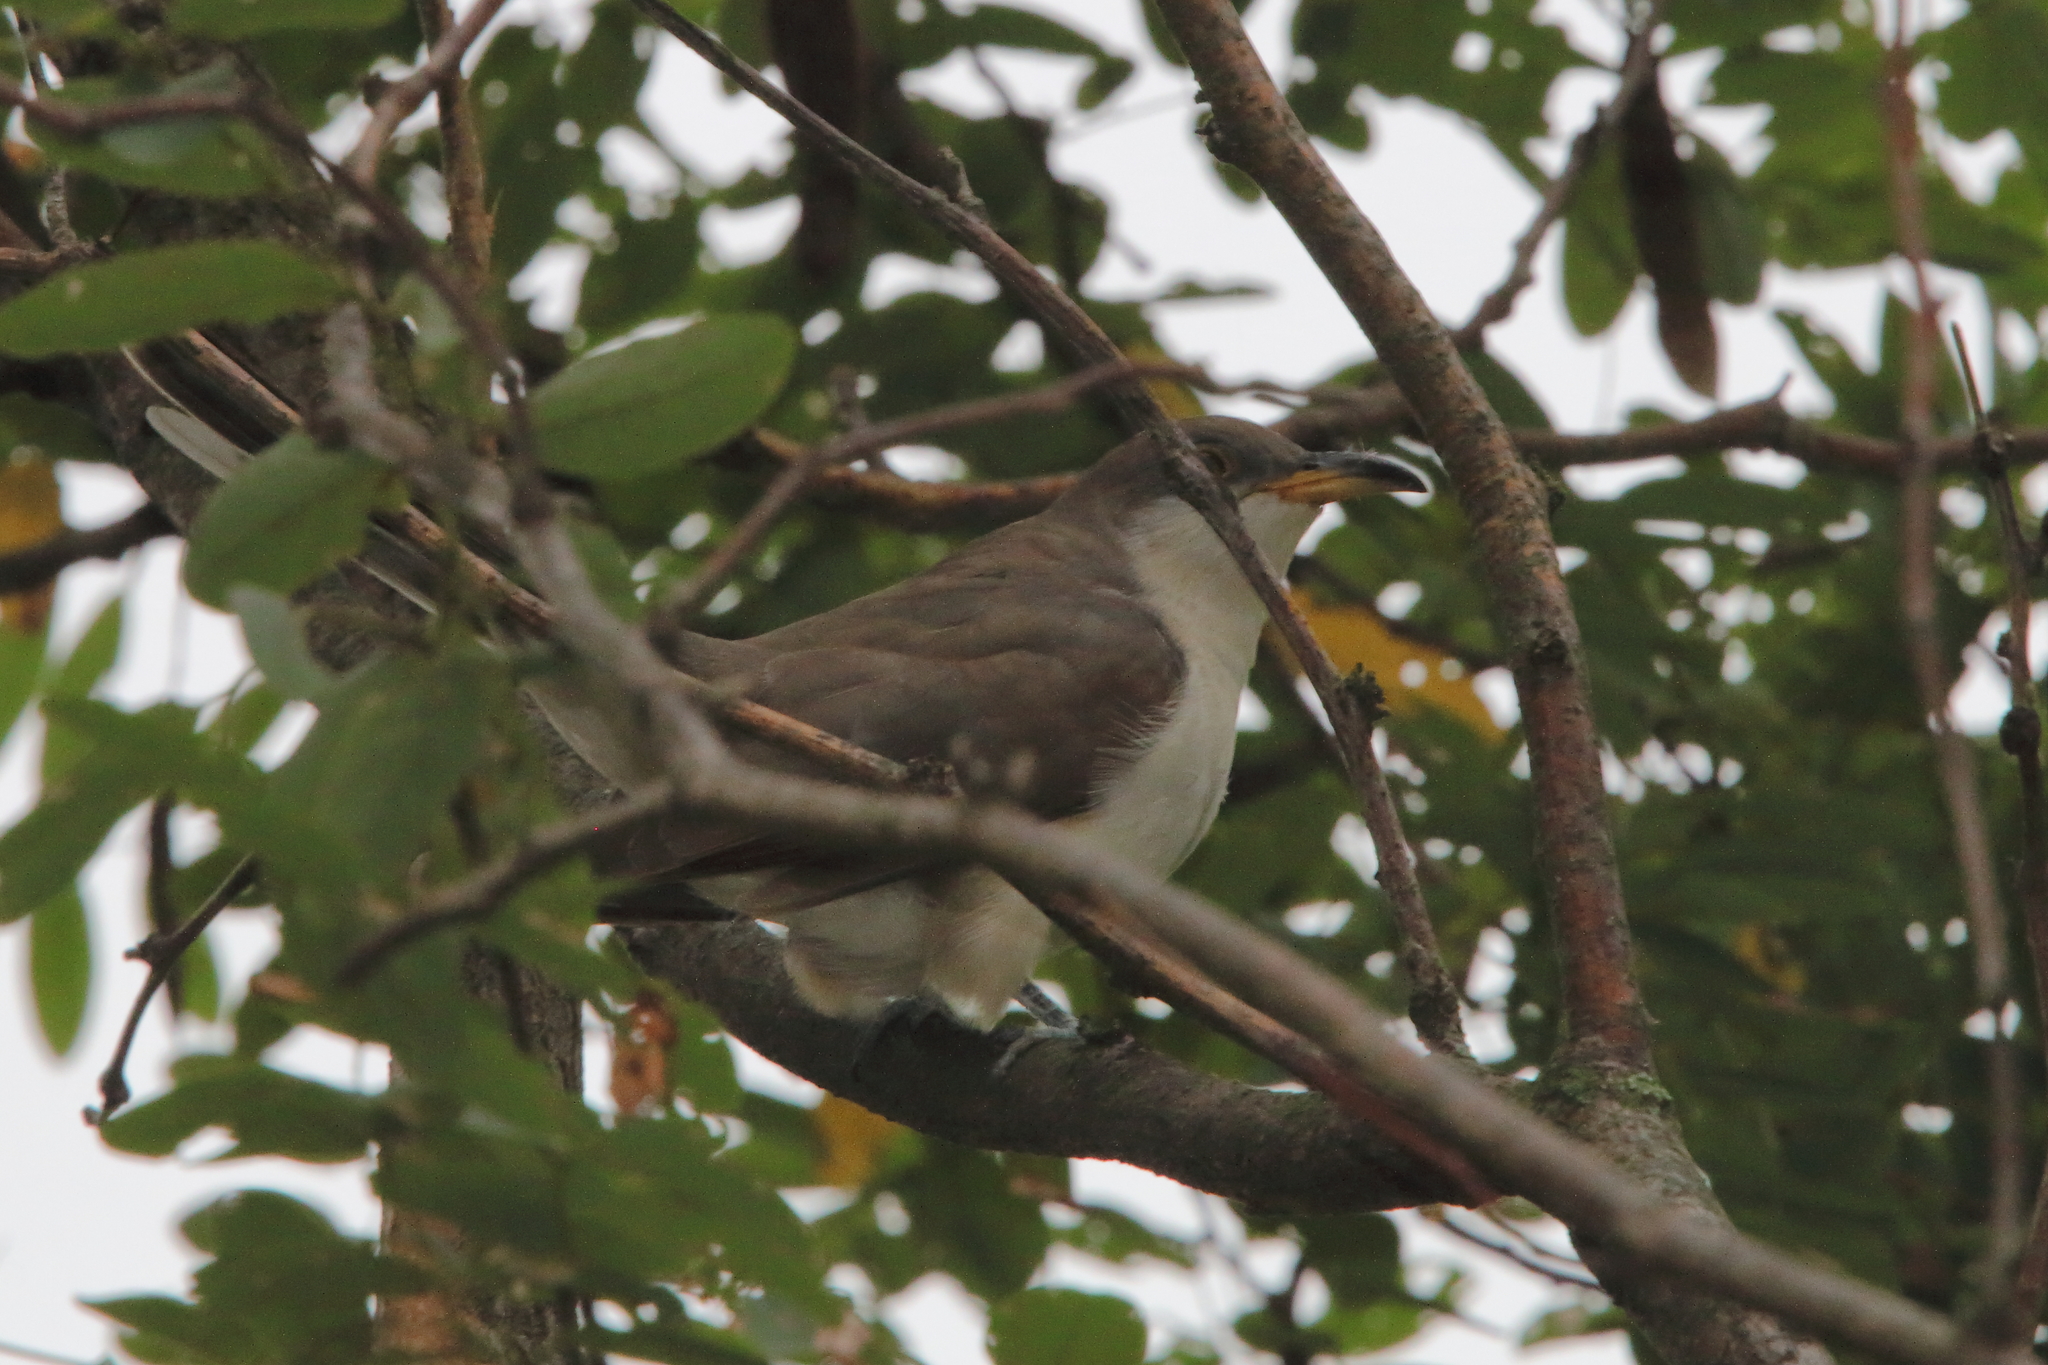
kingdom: Animalia
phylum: Chordata
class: Aves
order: Cuculiformes
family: Cuculidae
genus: Coccyzus
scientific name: Coccyzus americanus
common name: Yellow-billed cuckoo
